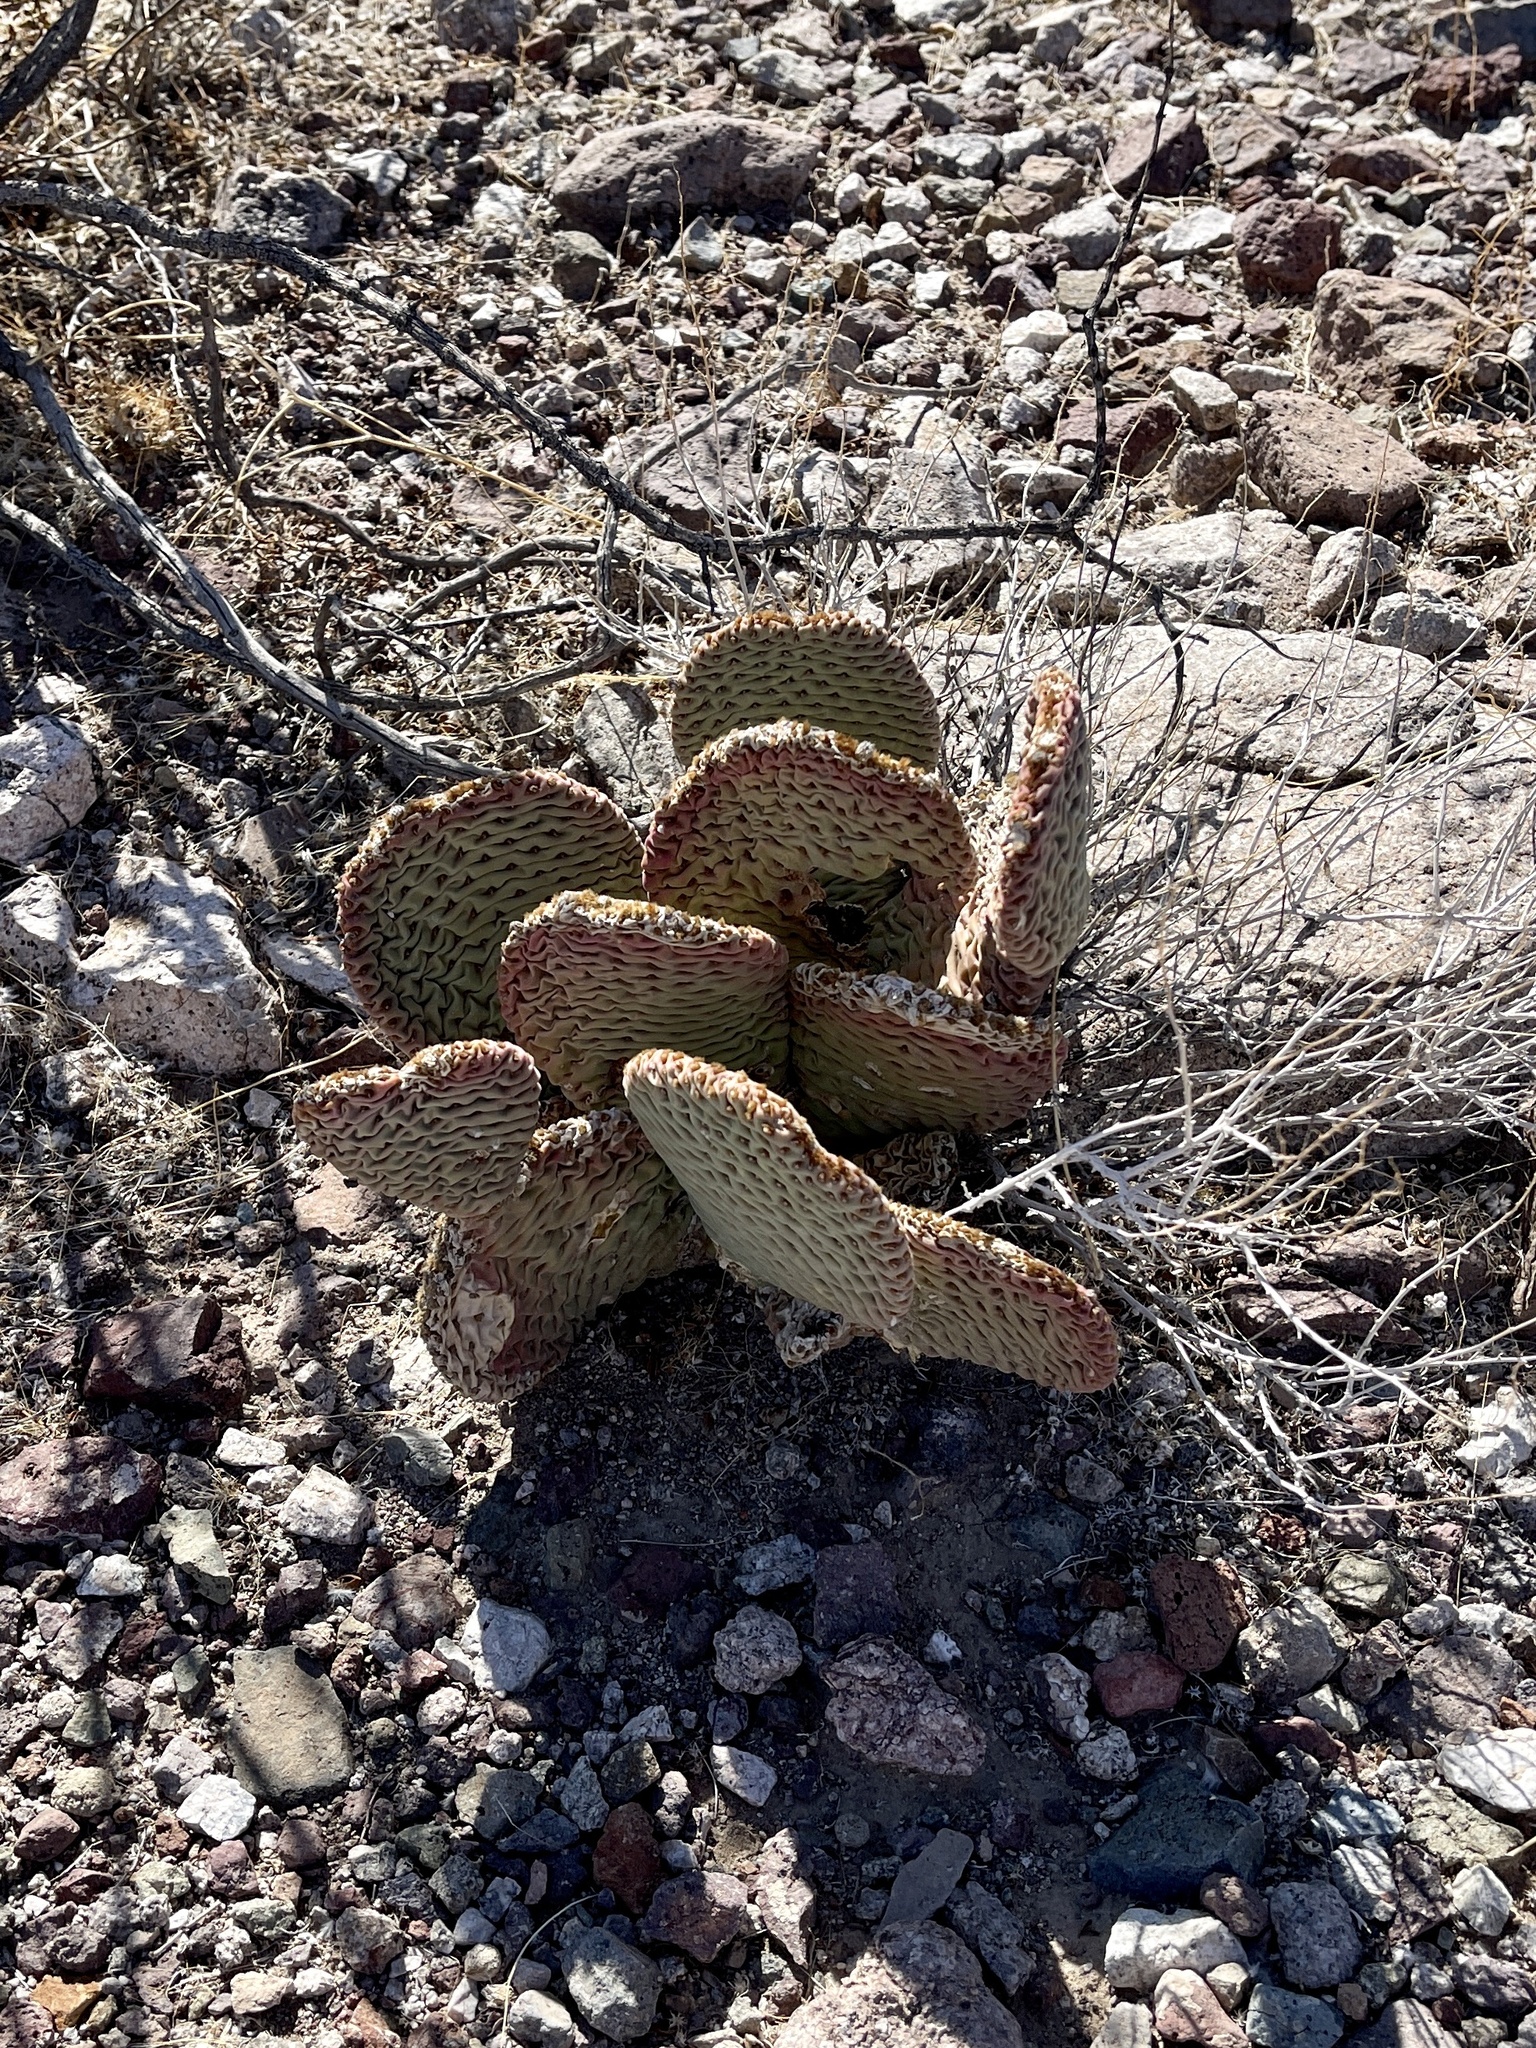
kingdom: Plantae
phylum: Tracheophyta
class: Magnoliopsida
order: Caryophyllales
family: Cactaceae
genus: Opuntia
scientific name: Opuntia basilaris
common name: Beavertail prickly-pear
